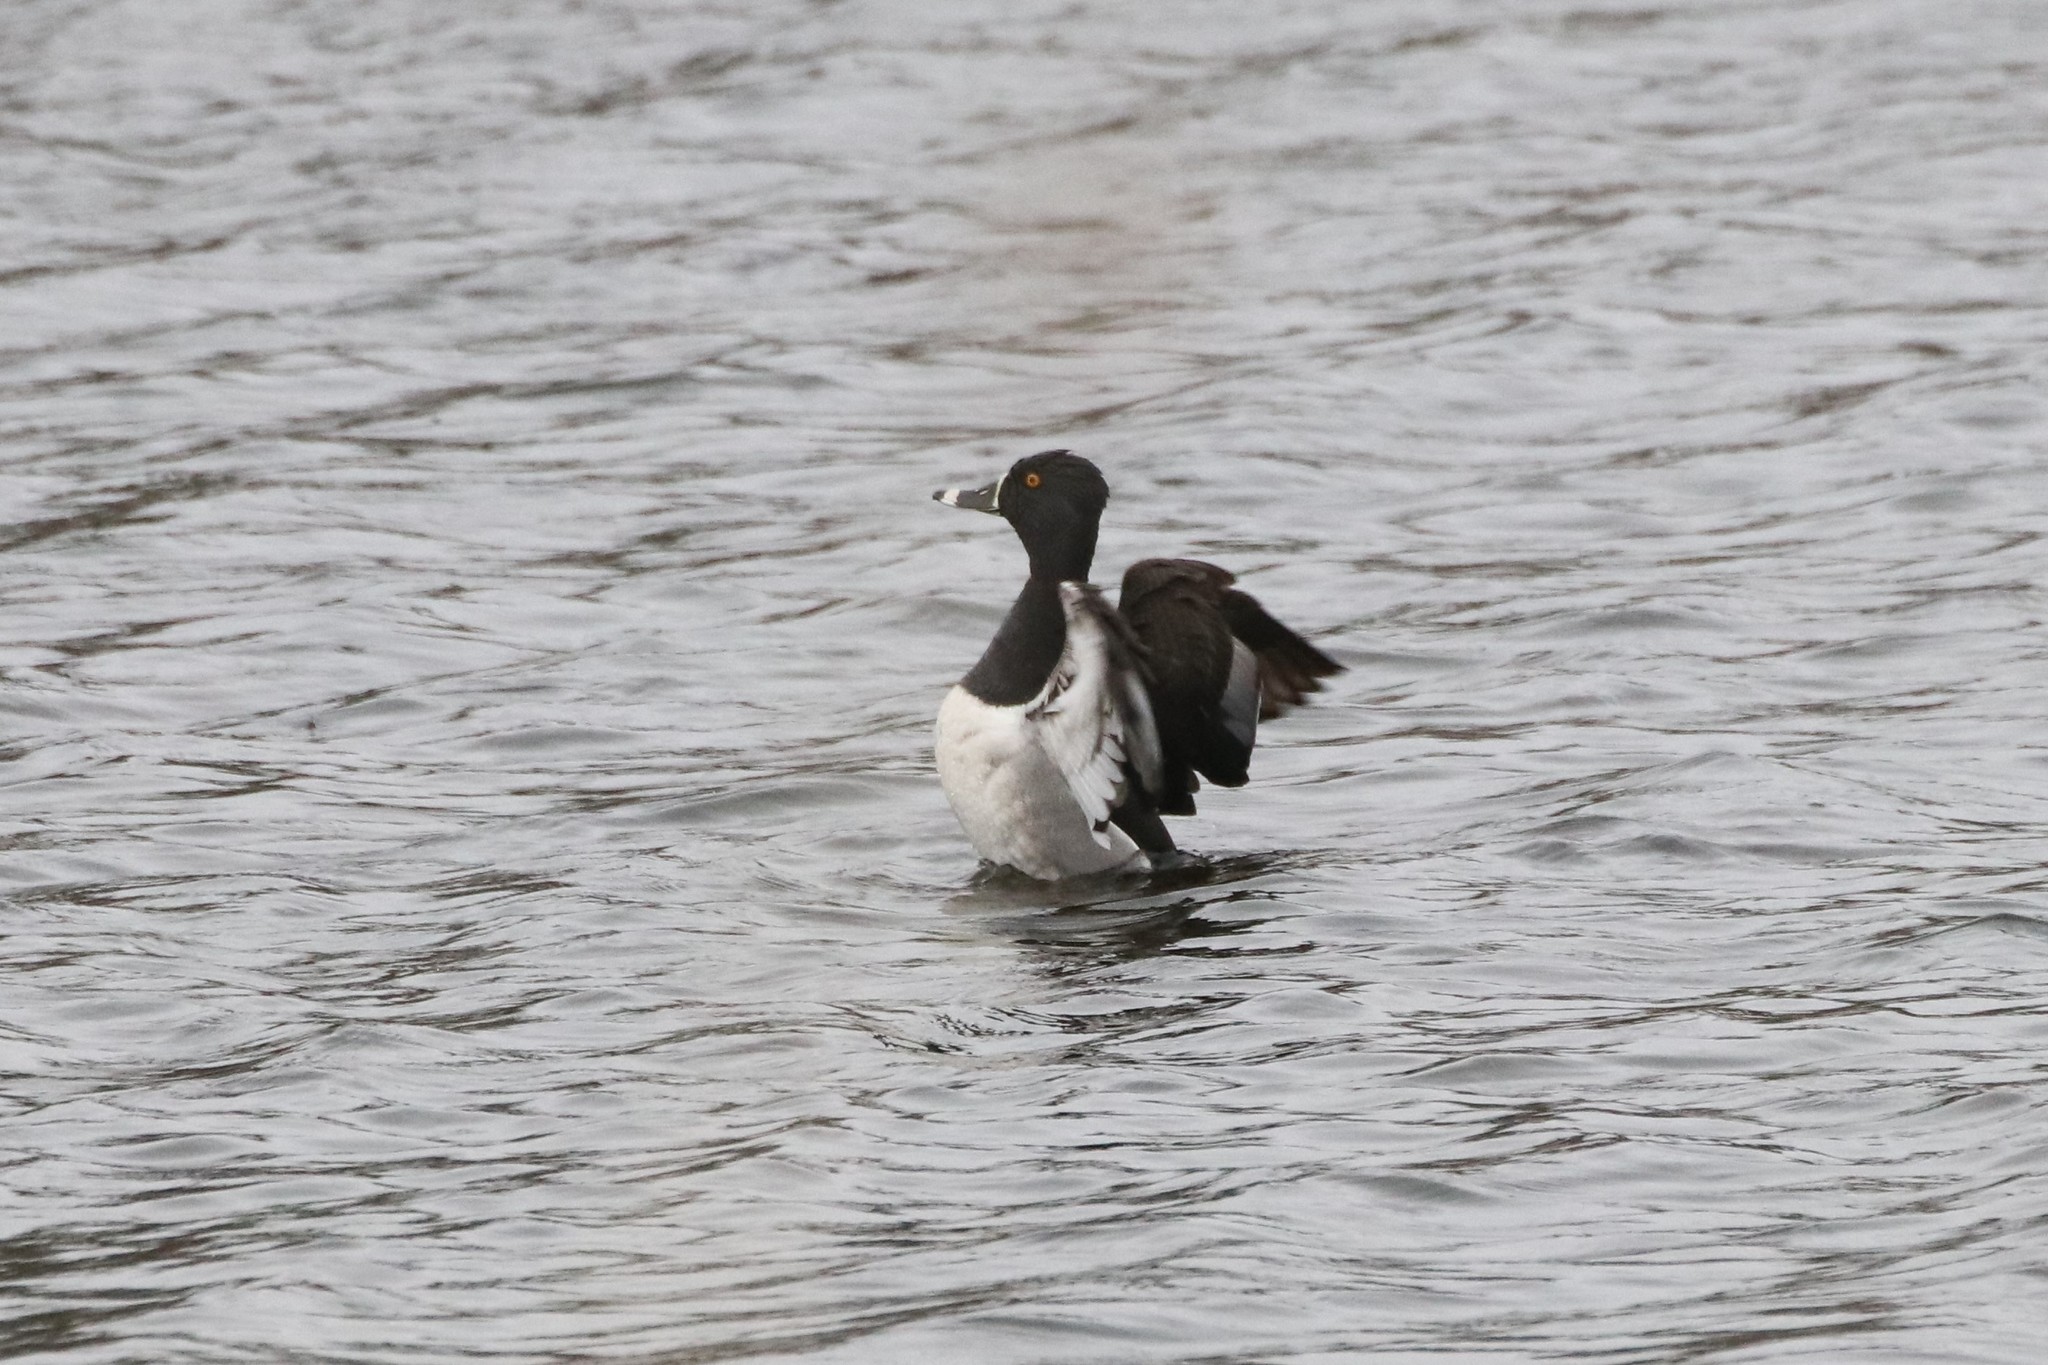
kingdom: Animalia
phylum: Chordata
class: Aves
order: Anseriformes
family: Anatidae
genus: Aythya
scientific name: Aythya collaris
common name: Ring-necked duck
